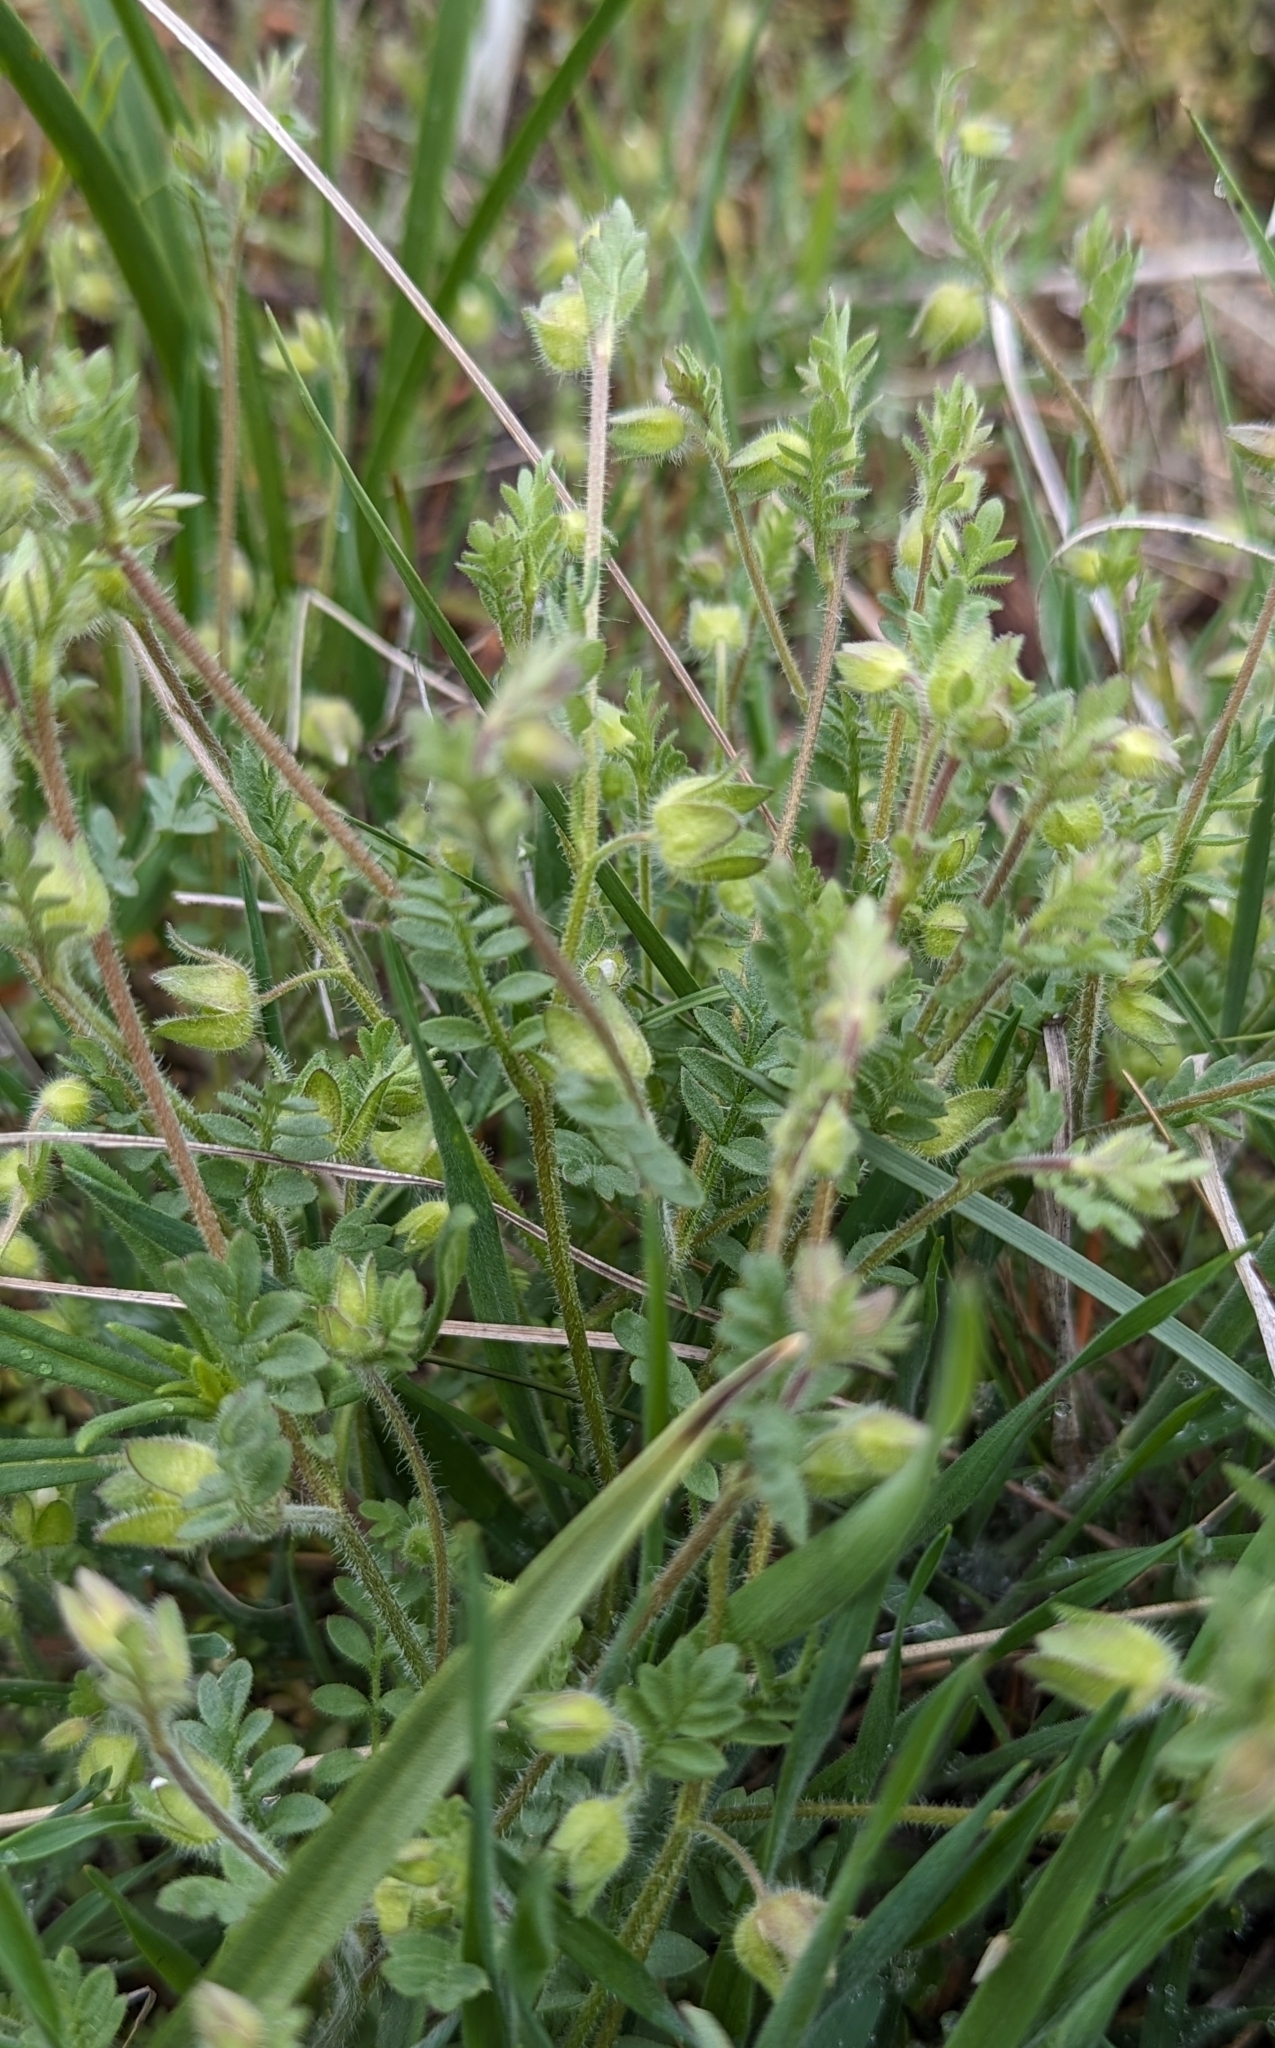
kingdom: Plantae
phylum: Tracheophyta
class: Magnoliopsida
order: Ericales
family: Polemoniaceae
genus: Polemonium
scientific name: Polemonium micranthum
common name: Annual jacob's-ladder
